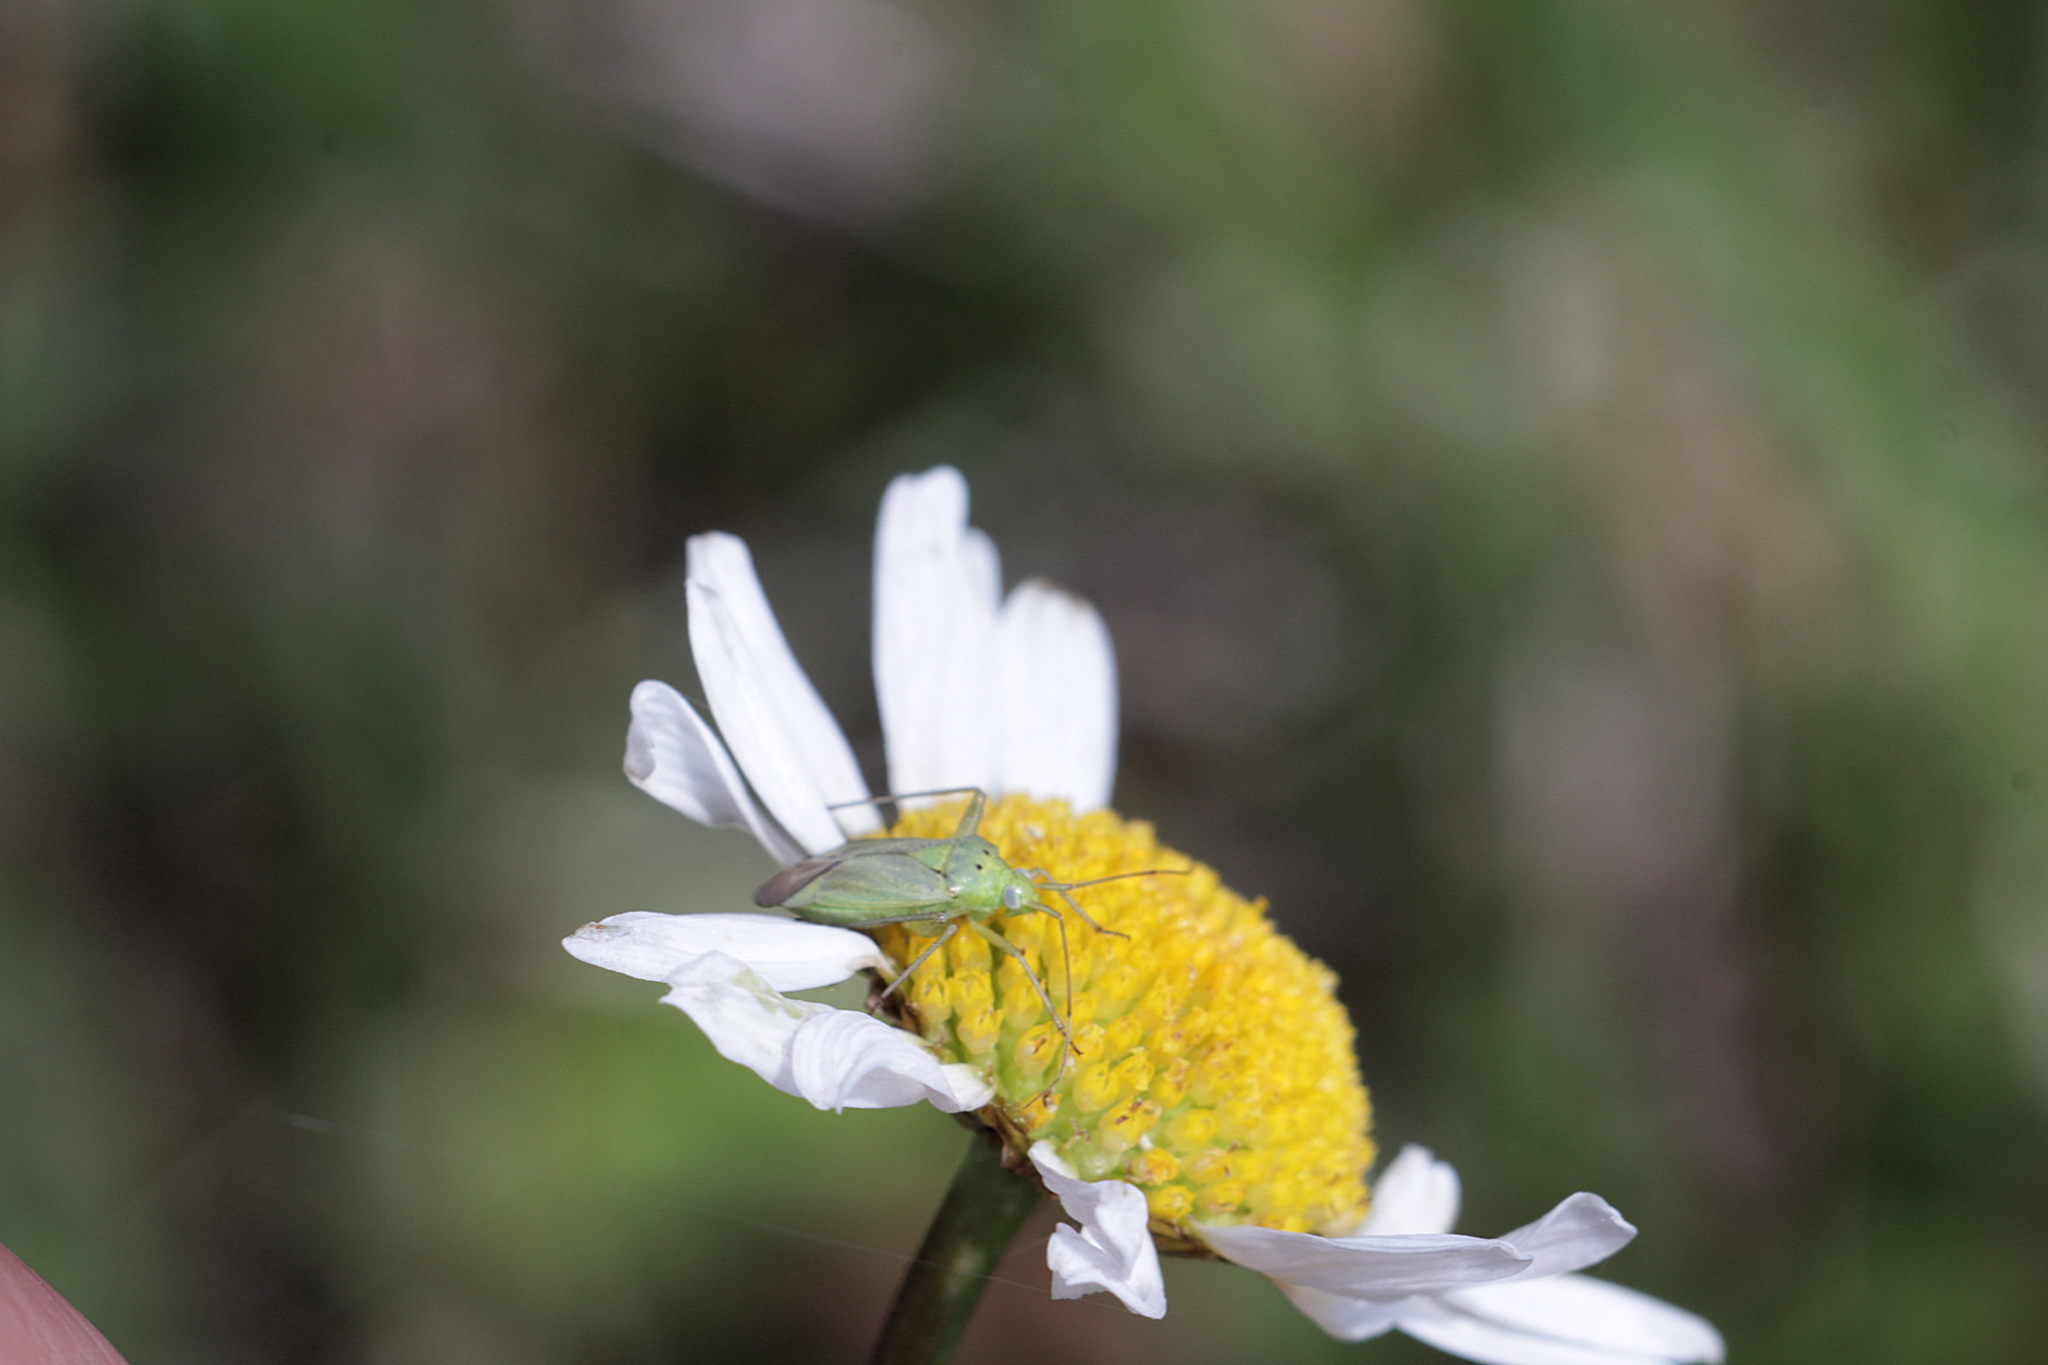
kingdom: Animalia
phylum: Arthropoda
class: Insecta
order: Hemiptera
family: Miridae
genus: Closterotomus
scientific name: Closterotomus norvegicus
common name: Plant bug
